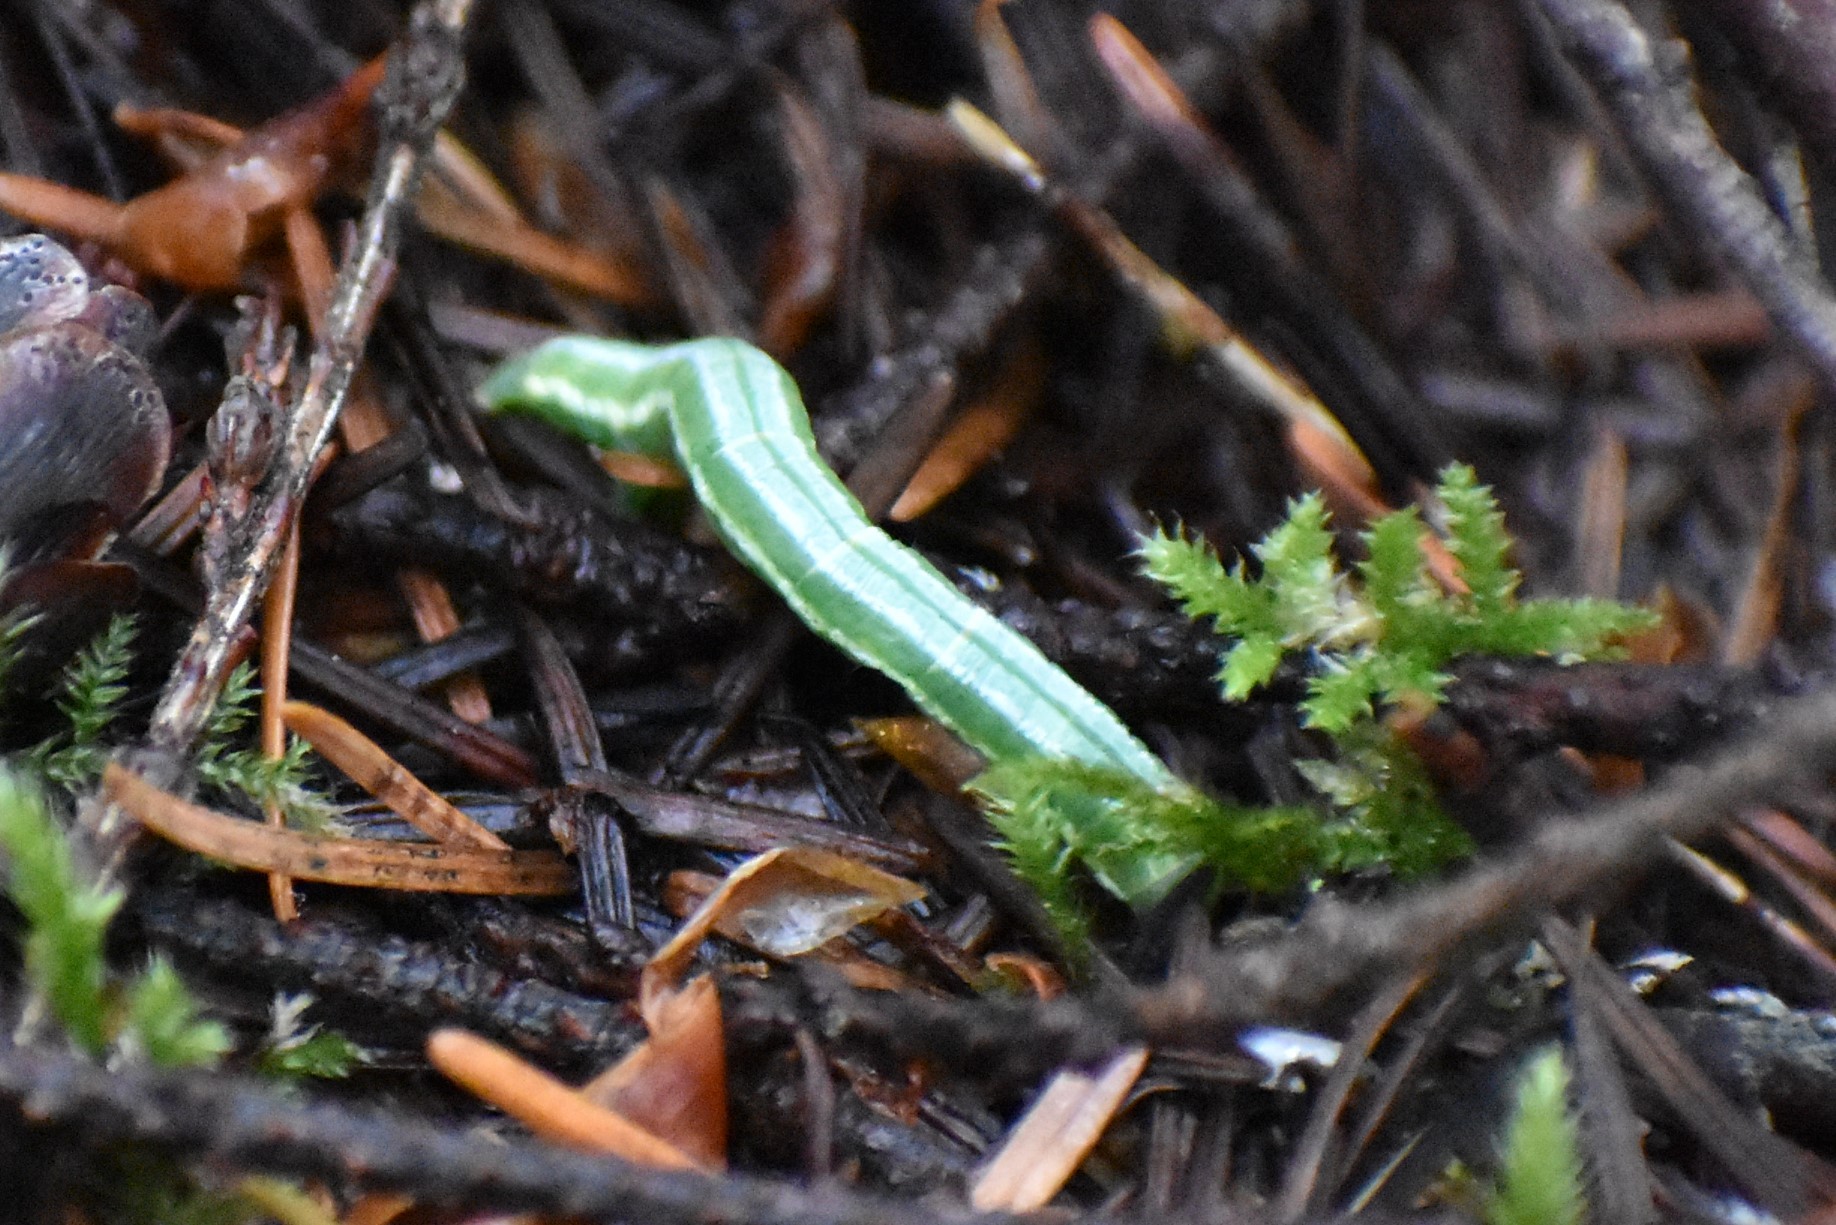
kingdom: Animalia
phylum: Arthropoda
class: Insecta
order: Lepidoptera
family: Geometridae
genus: Nepytia
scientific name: Nepytia phantasmaria
